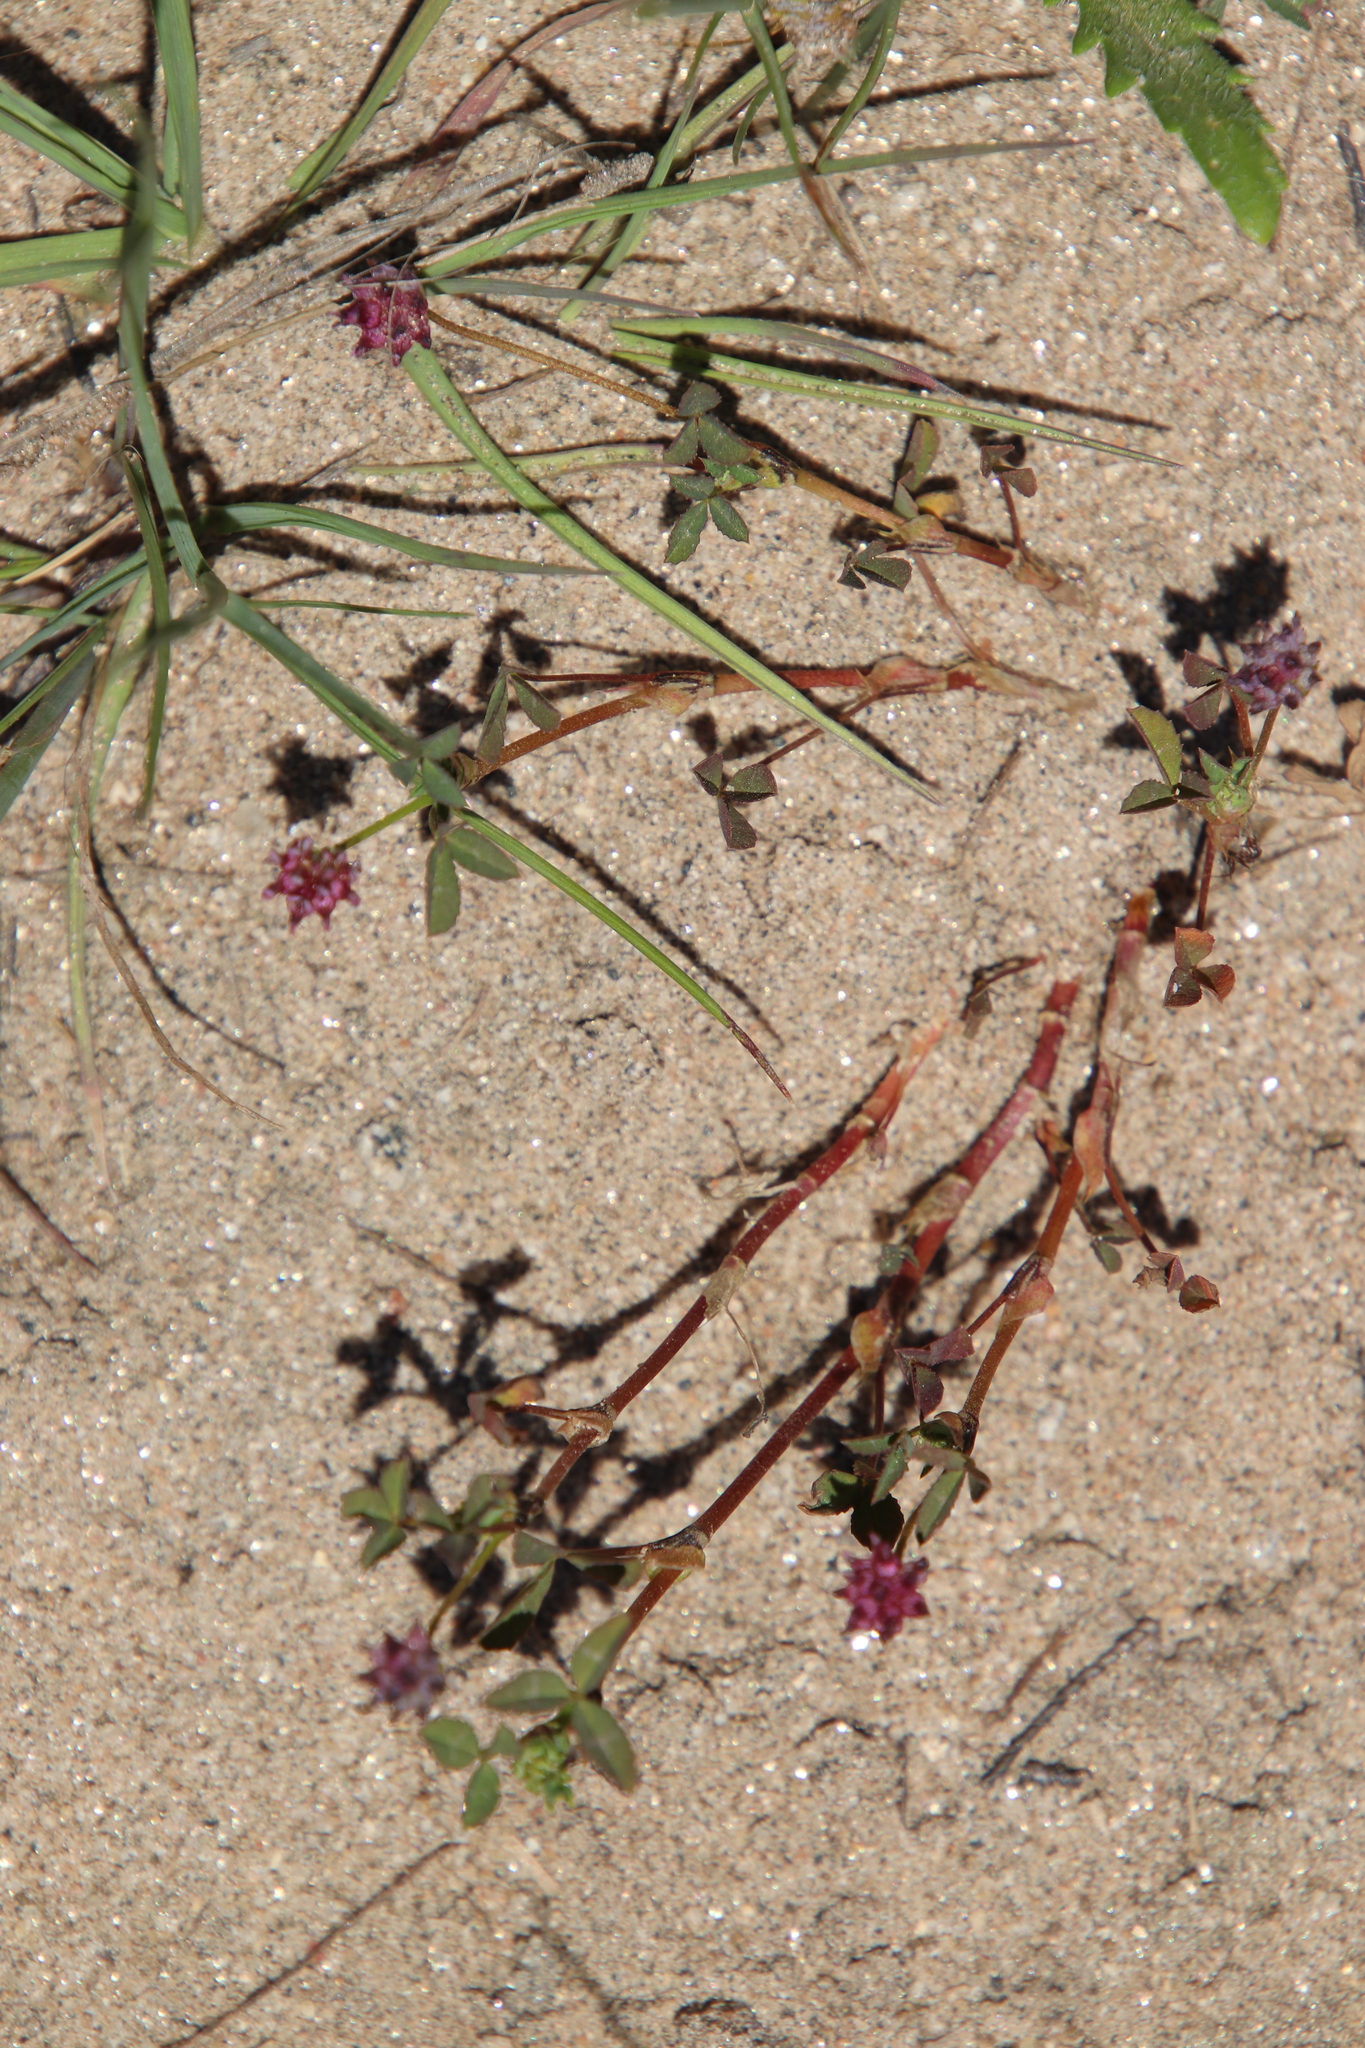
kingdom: Plantae
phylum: Tracheophyta
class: Magnoliopsida
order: Fabales
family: Fabaceae
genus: Trifolium
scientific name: Trifolium depauperatum
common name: Poverty clover
